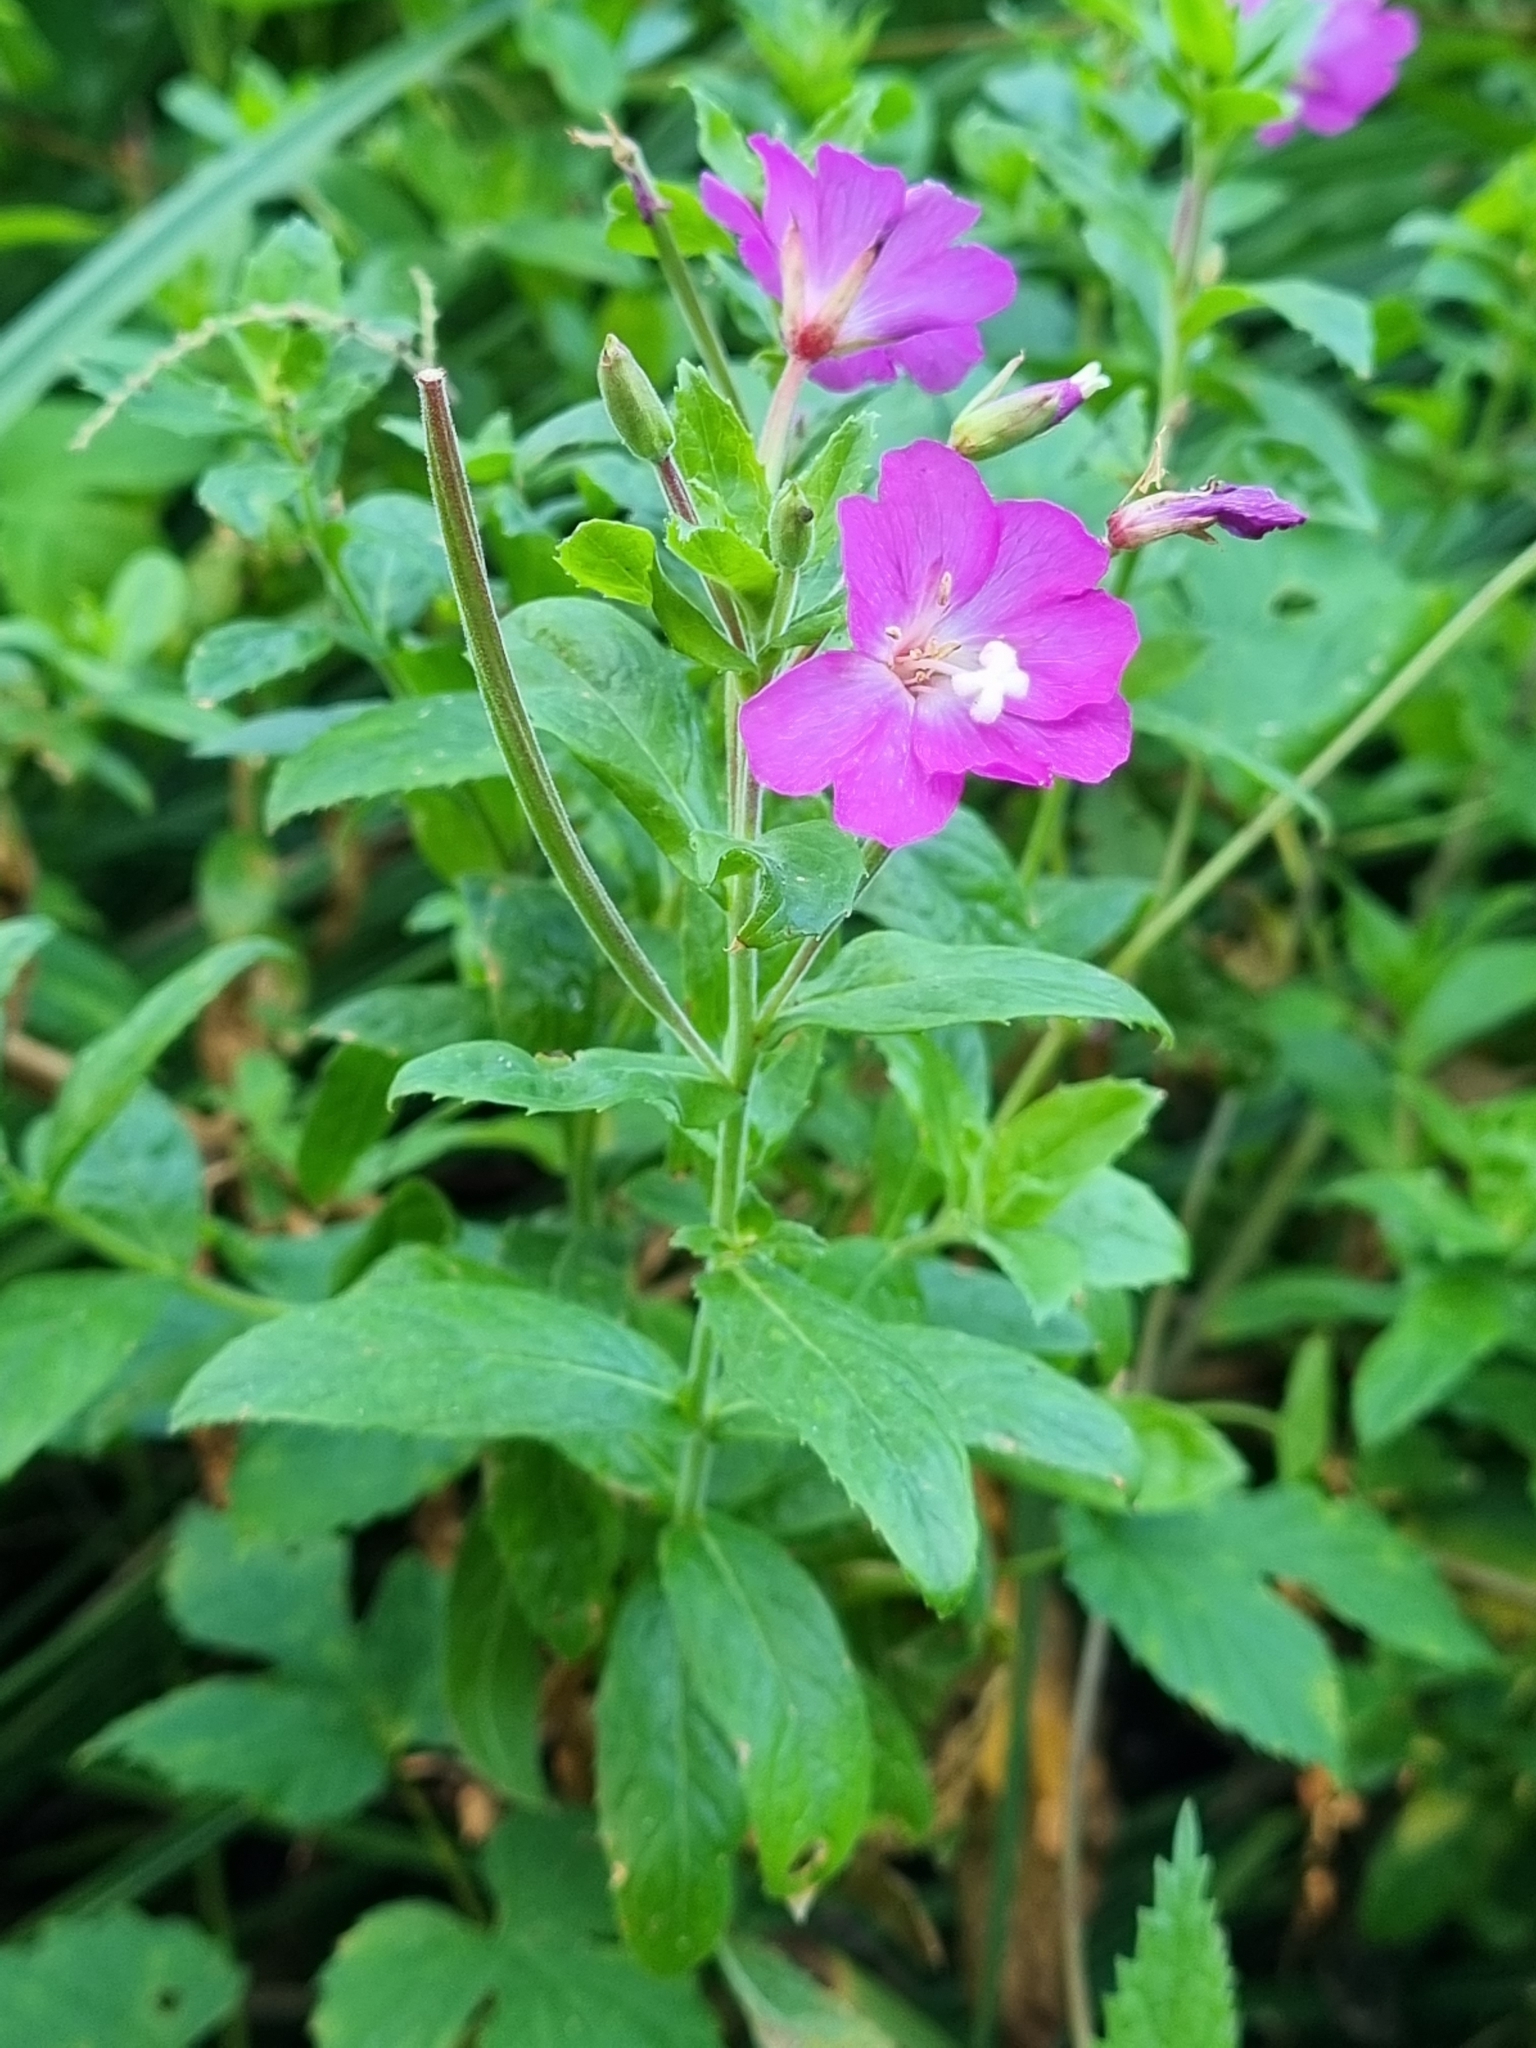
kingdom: Plantae
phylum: Tracheophyta
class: Magnoliopsida
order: Myrtales
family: Onagraceae
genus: Epilobium
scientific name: Epilobium hirsutum
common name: Great willowherb
